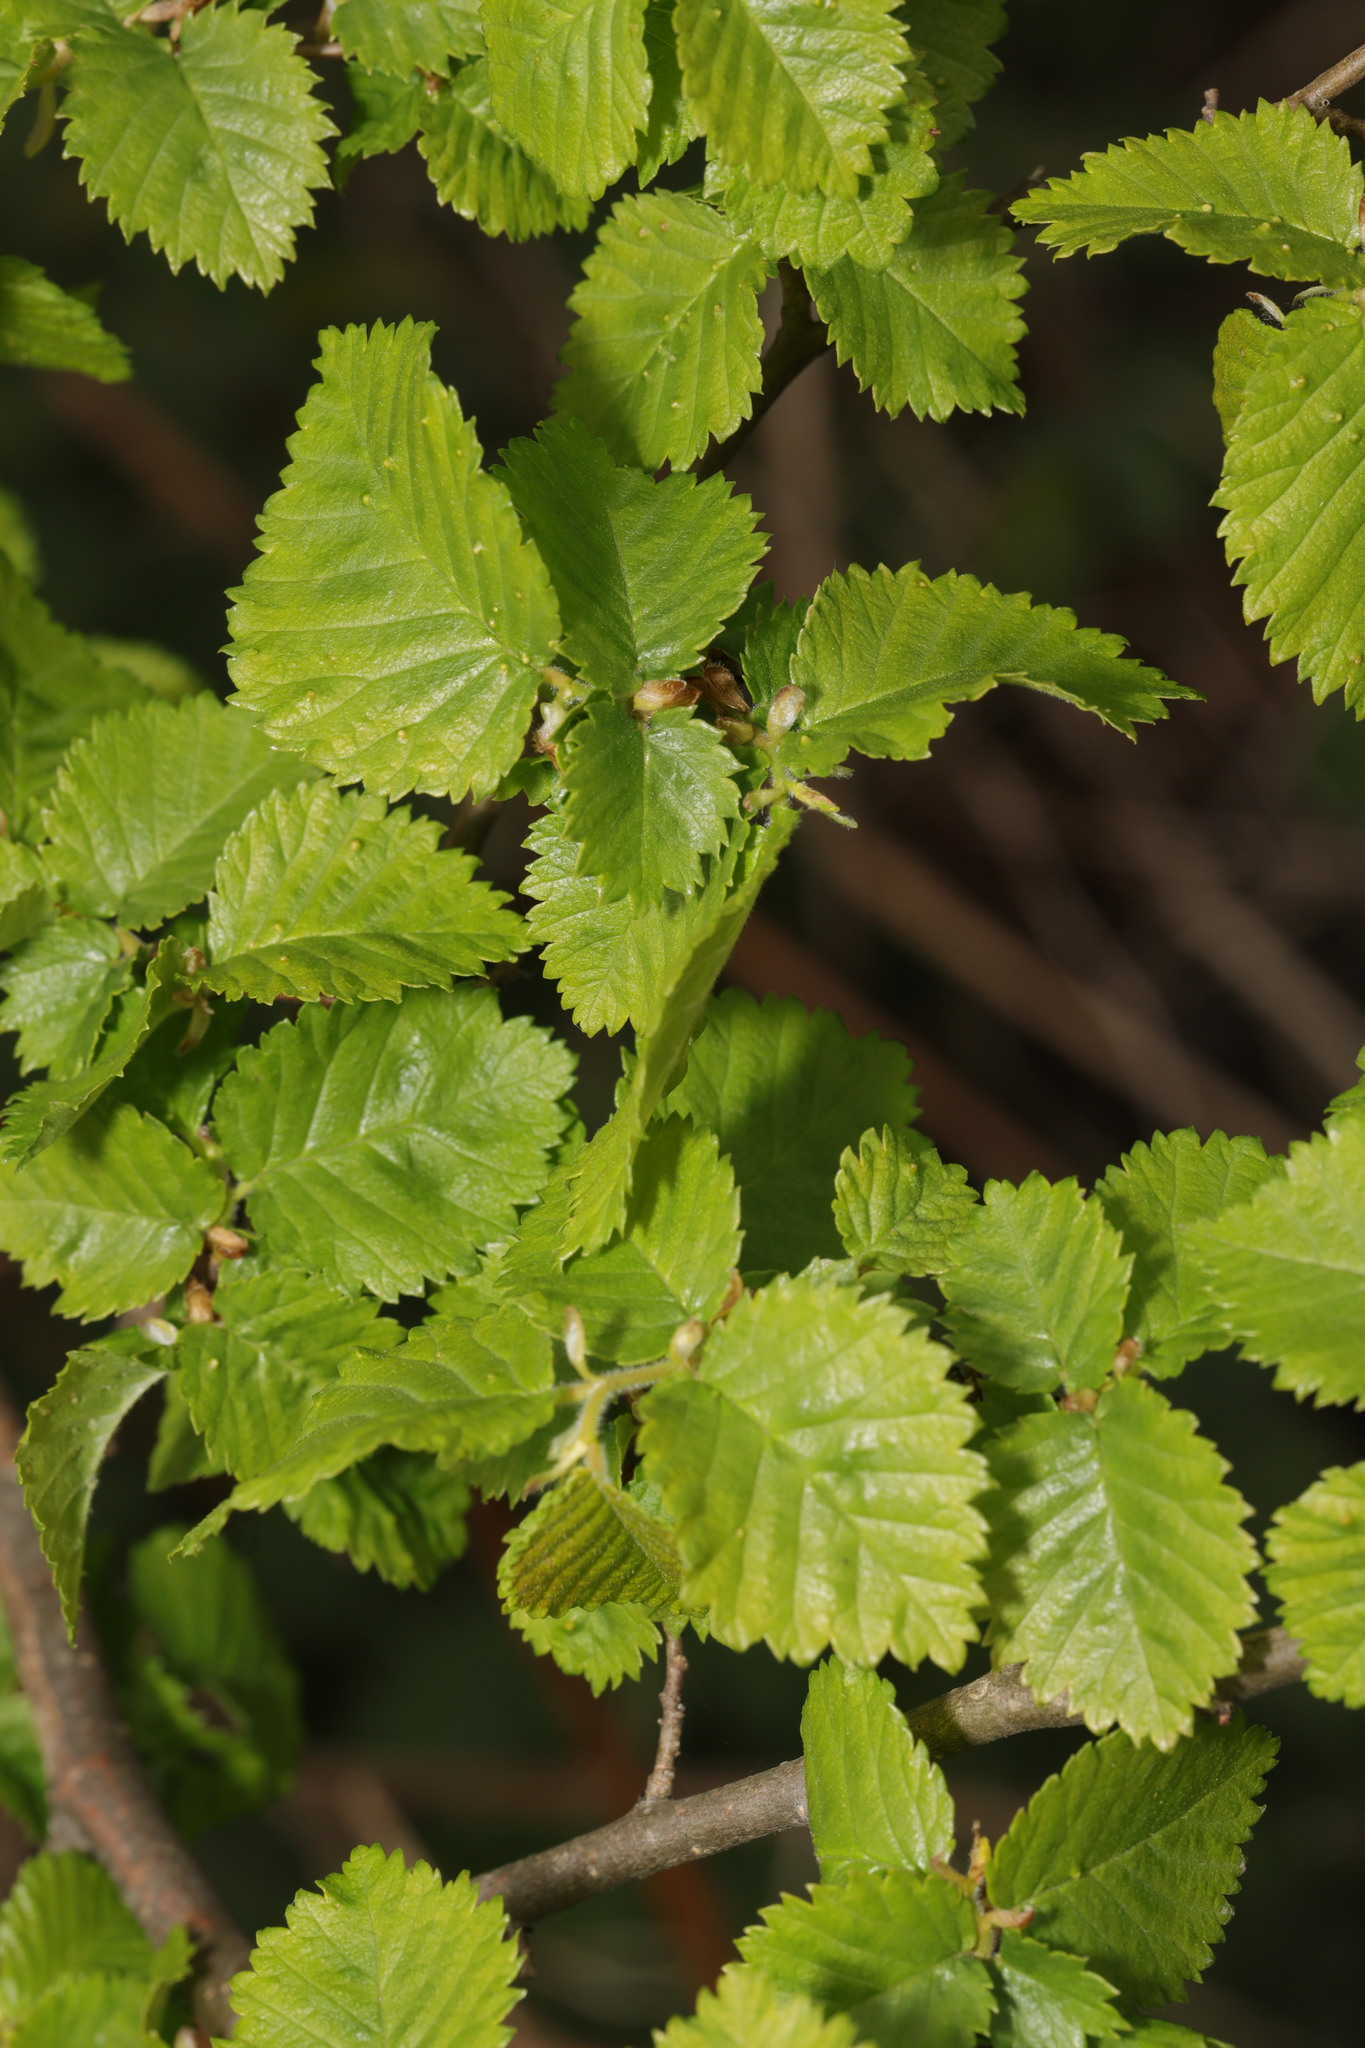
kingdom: Plantae
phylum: Tracheophyta
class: Magnoliopsida
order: Rosales
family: Ulmaceae
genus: Ulmus
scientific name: Ulmus minor
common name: Small-leaved elm
